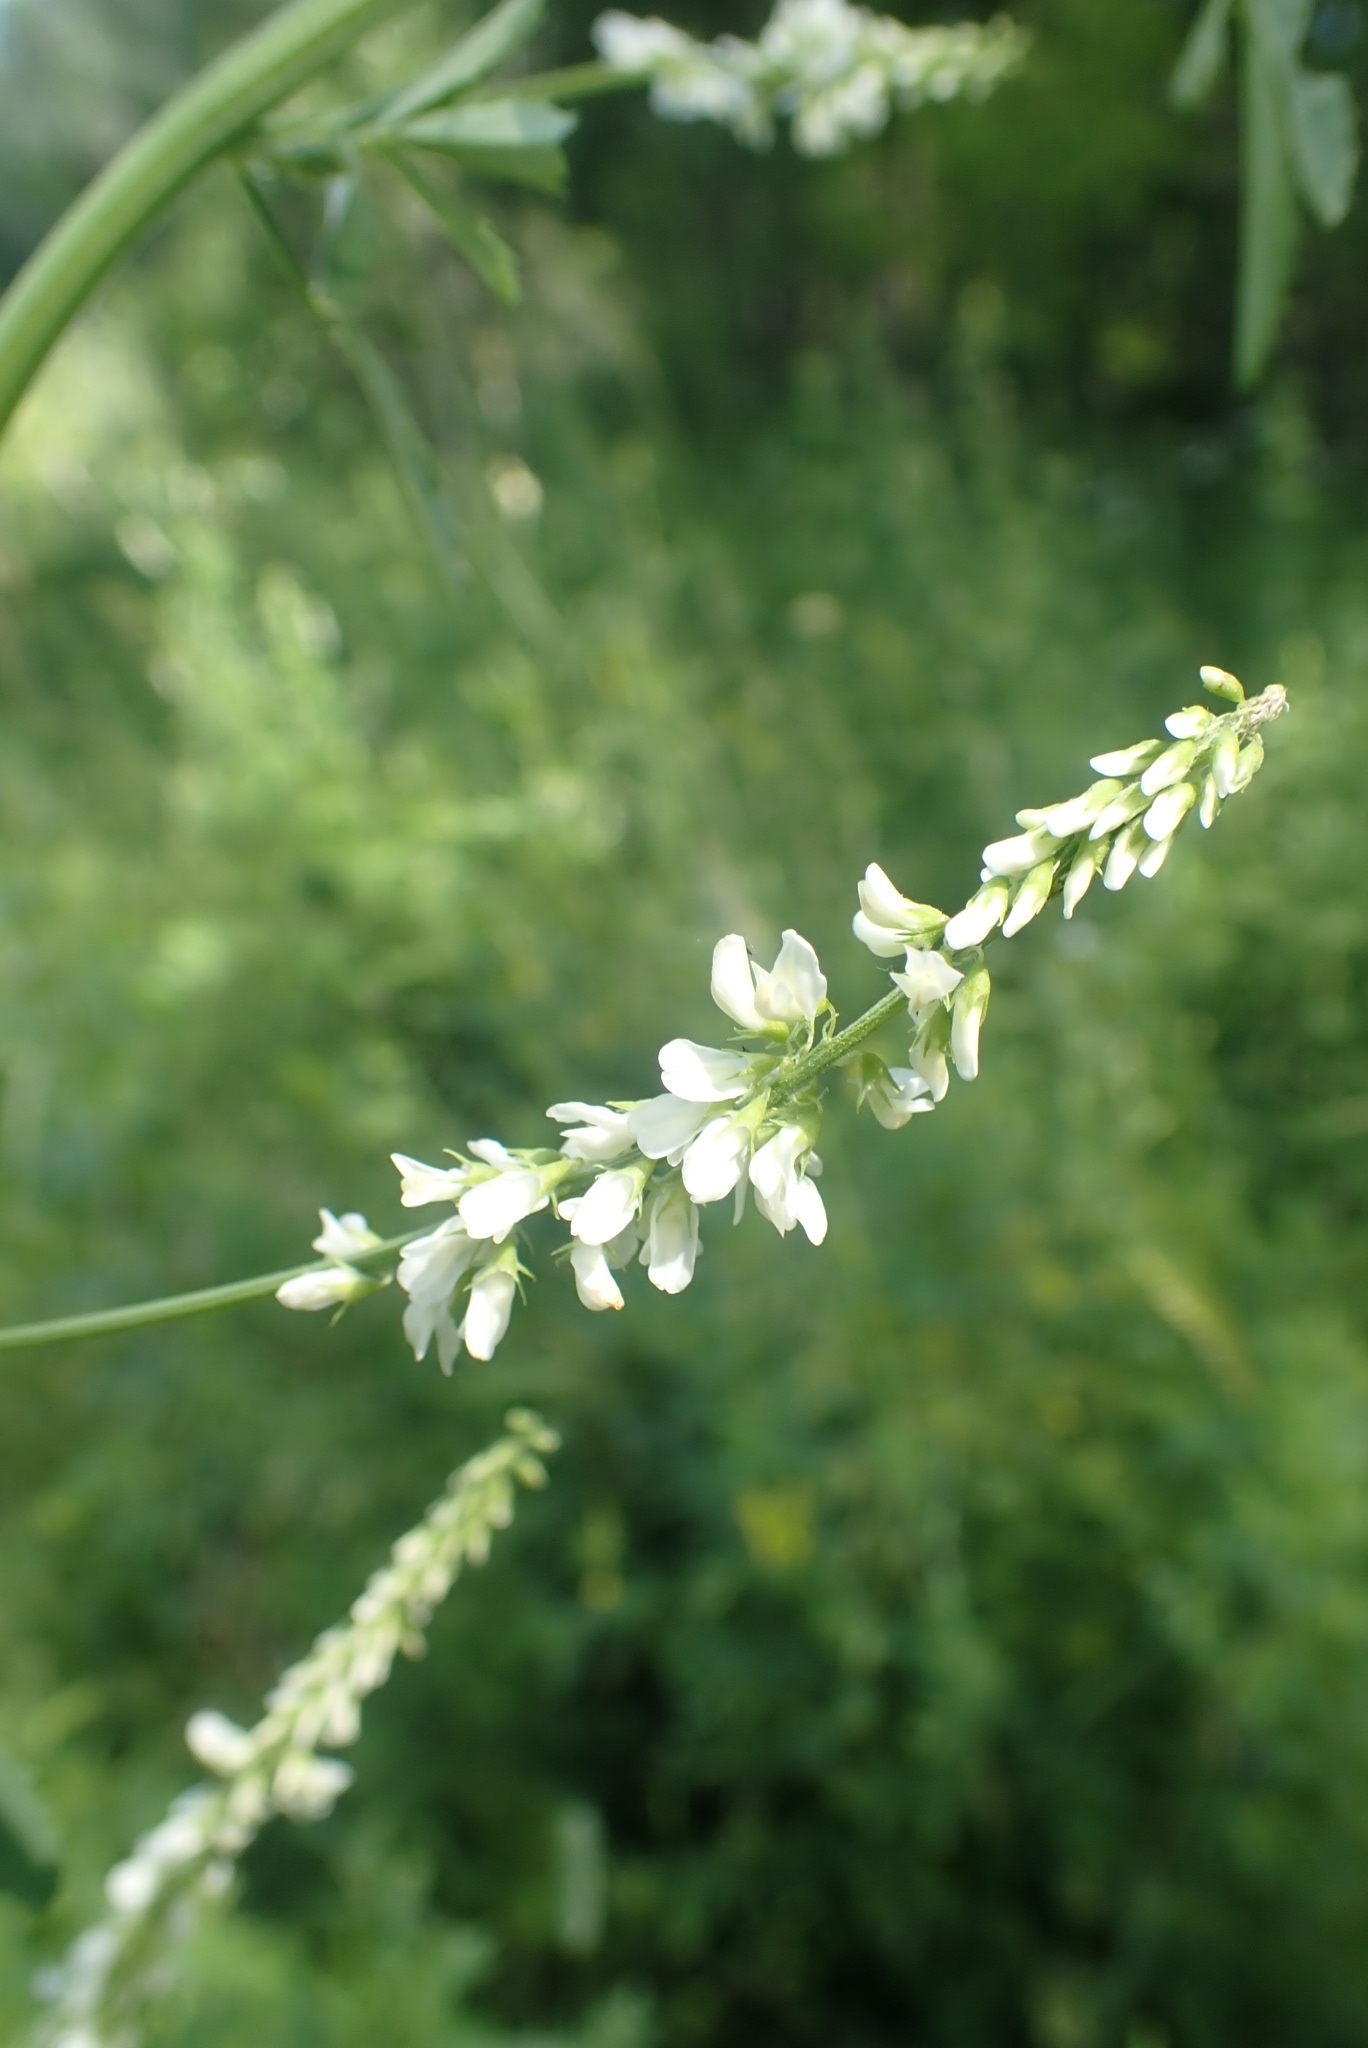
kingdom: Plantae
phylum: Tracheophyta
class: Magnoliopsida
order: Fabales
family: Fabaceae
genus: Melilotus
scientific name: Melilotus albus
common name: White melilot
